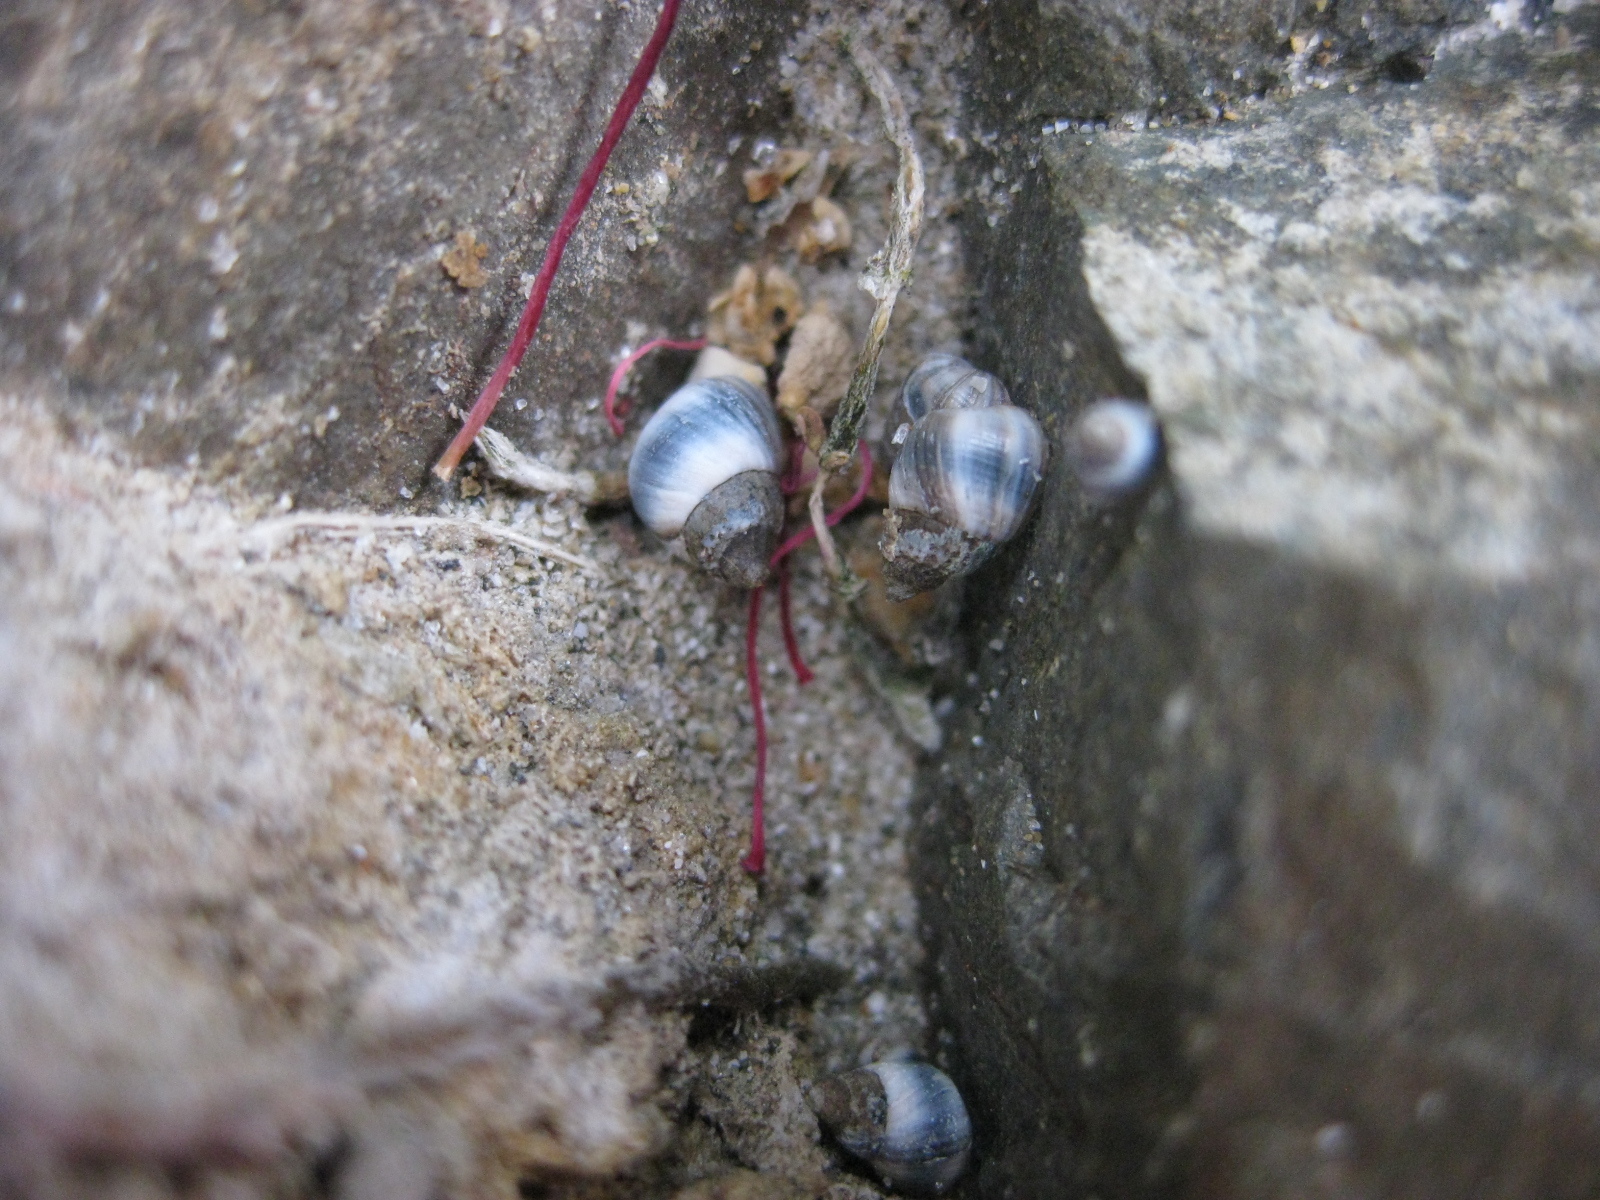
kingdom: Animalia
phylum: Mollusca
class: Gastropoda
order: Littorinimorpha
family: Littorinidae
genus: Austrolittorina
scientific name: Austrolittorina antipodum
